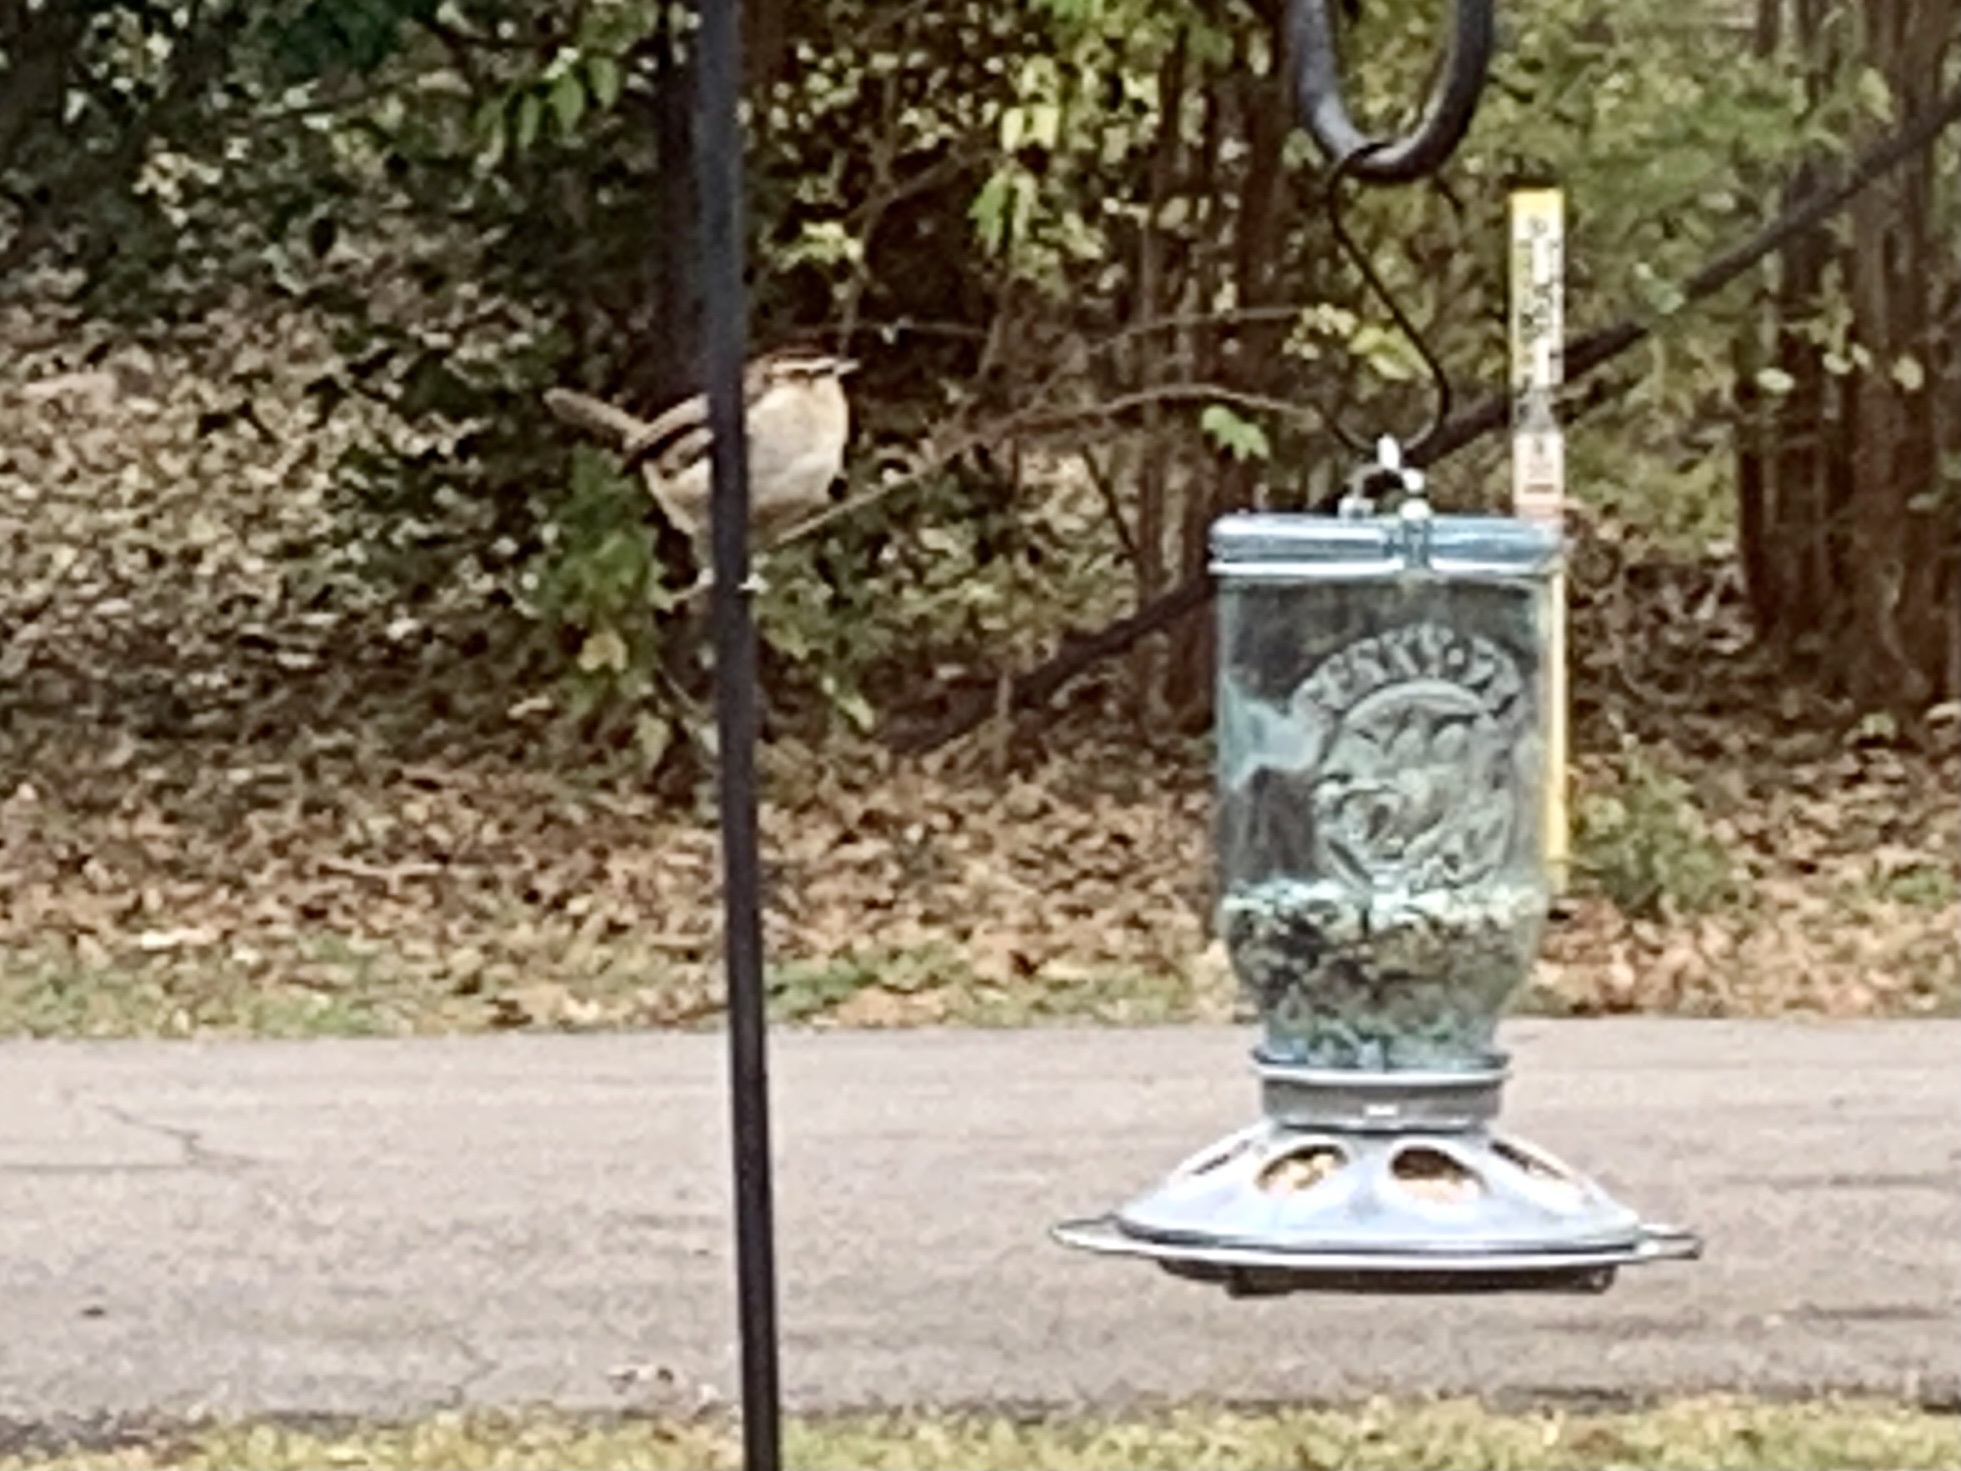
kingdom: Animalia
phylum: Chordata
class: Aves
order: Passeriformes
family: Troglodytidae
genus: Thryothorus
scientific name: Thryothorus ludovicianus
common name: Carolina wren
